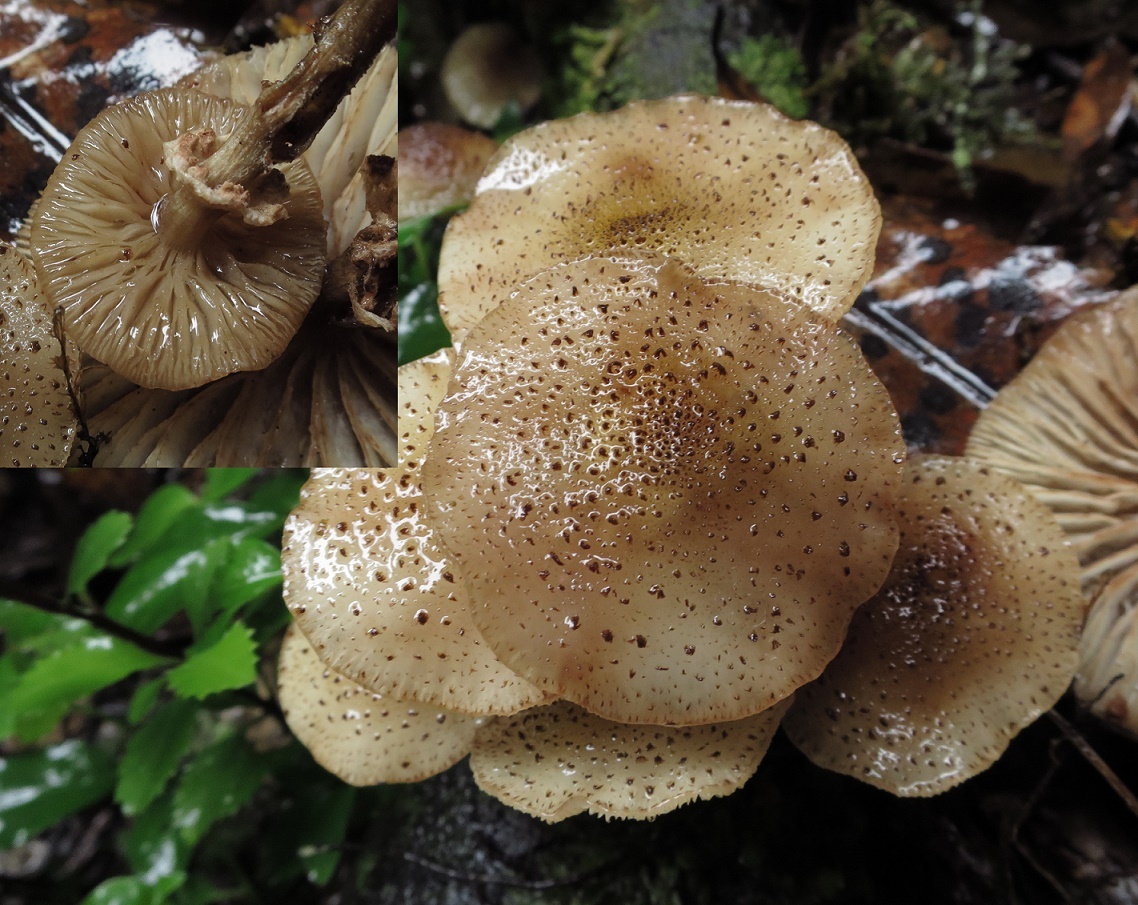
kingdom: Fungi
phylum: Basidiomycota
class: Agaricomycetes
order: Agaricales
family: Physalacriaceae
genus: Armillaria
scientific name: Armillaria limonea
